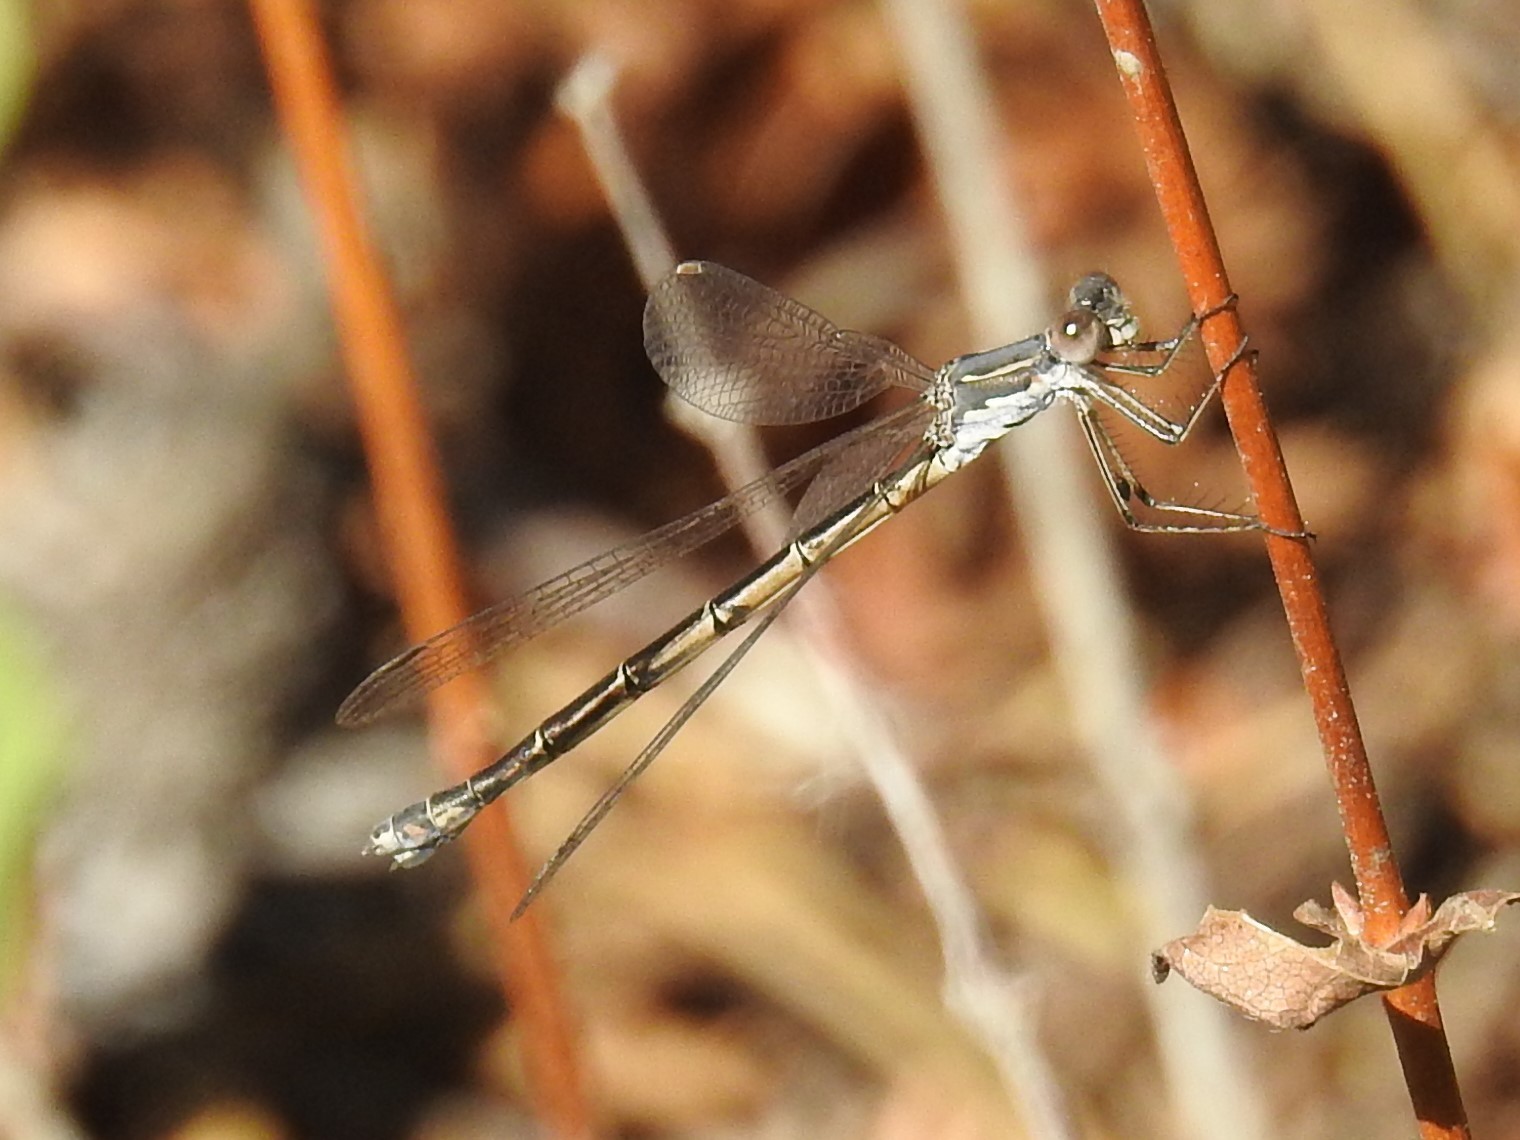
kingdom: Animalia
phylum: Arthropoda
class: Insecta
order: Odonata
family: Lestidae
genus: Lestes
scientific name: Lestes congener
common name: Spotted spreadwing
